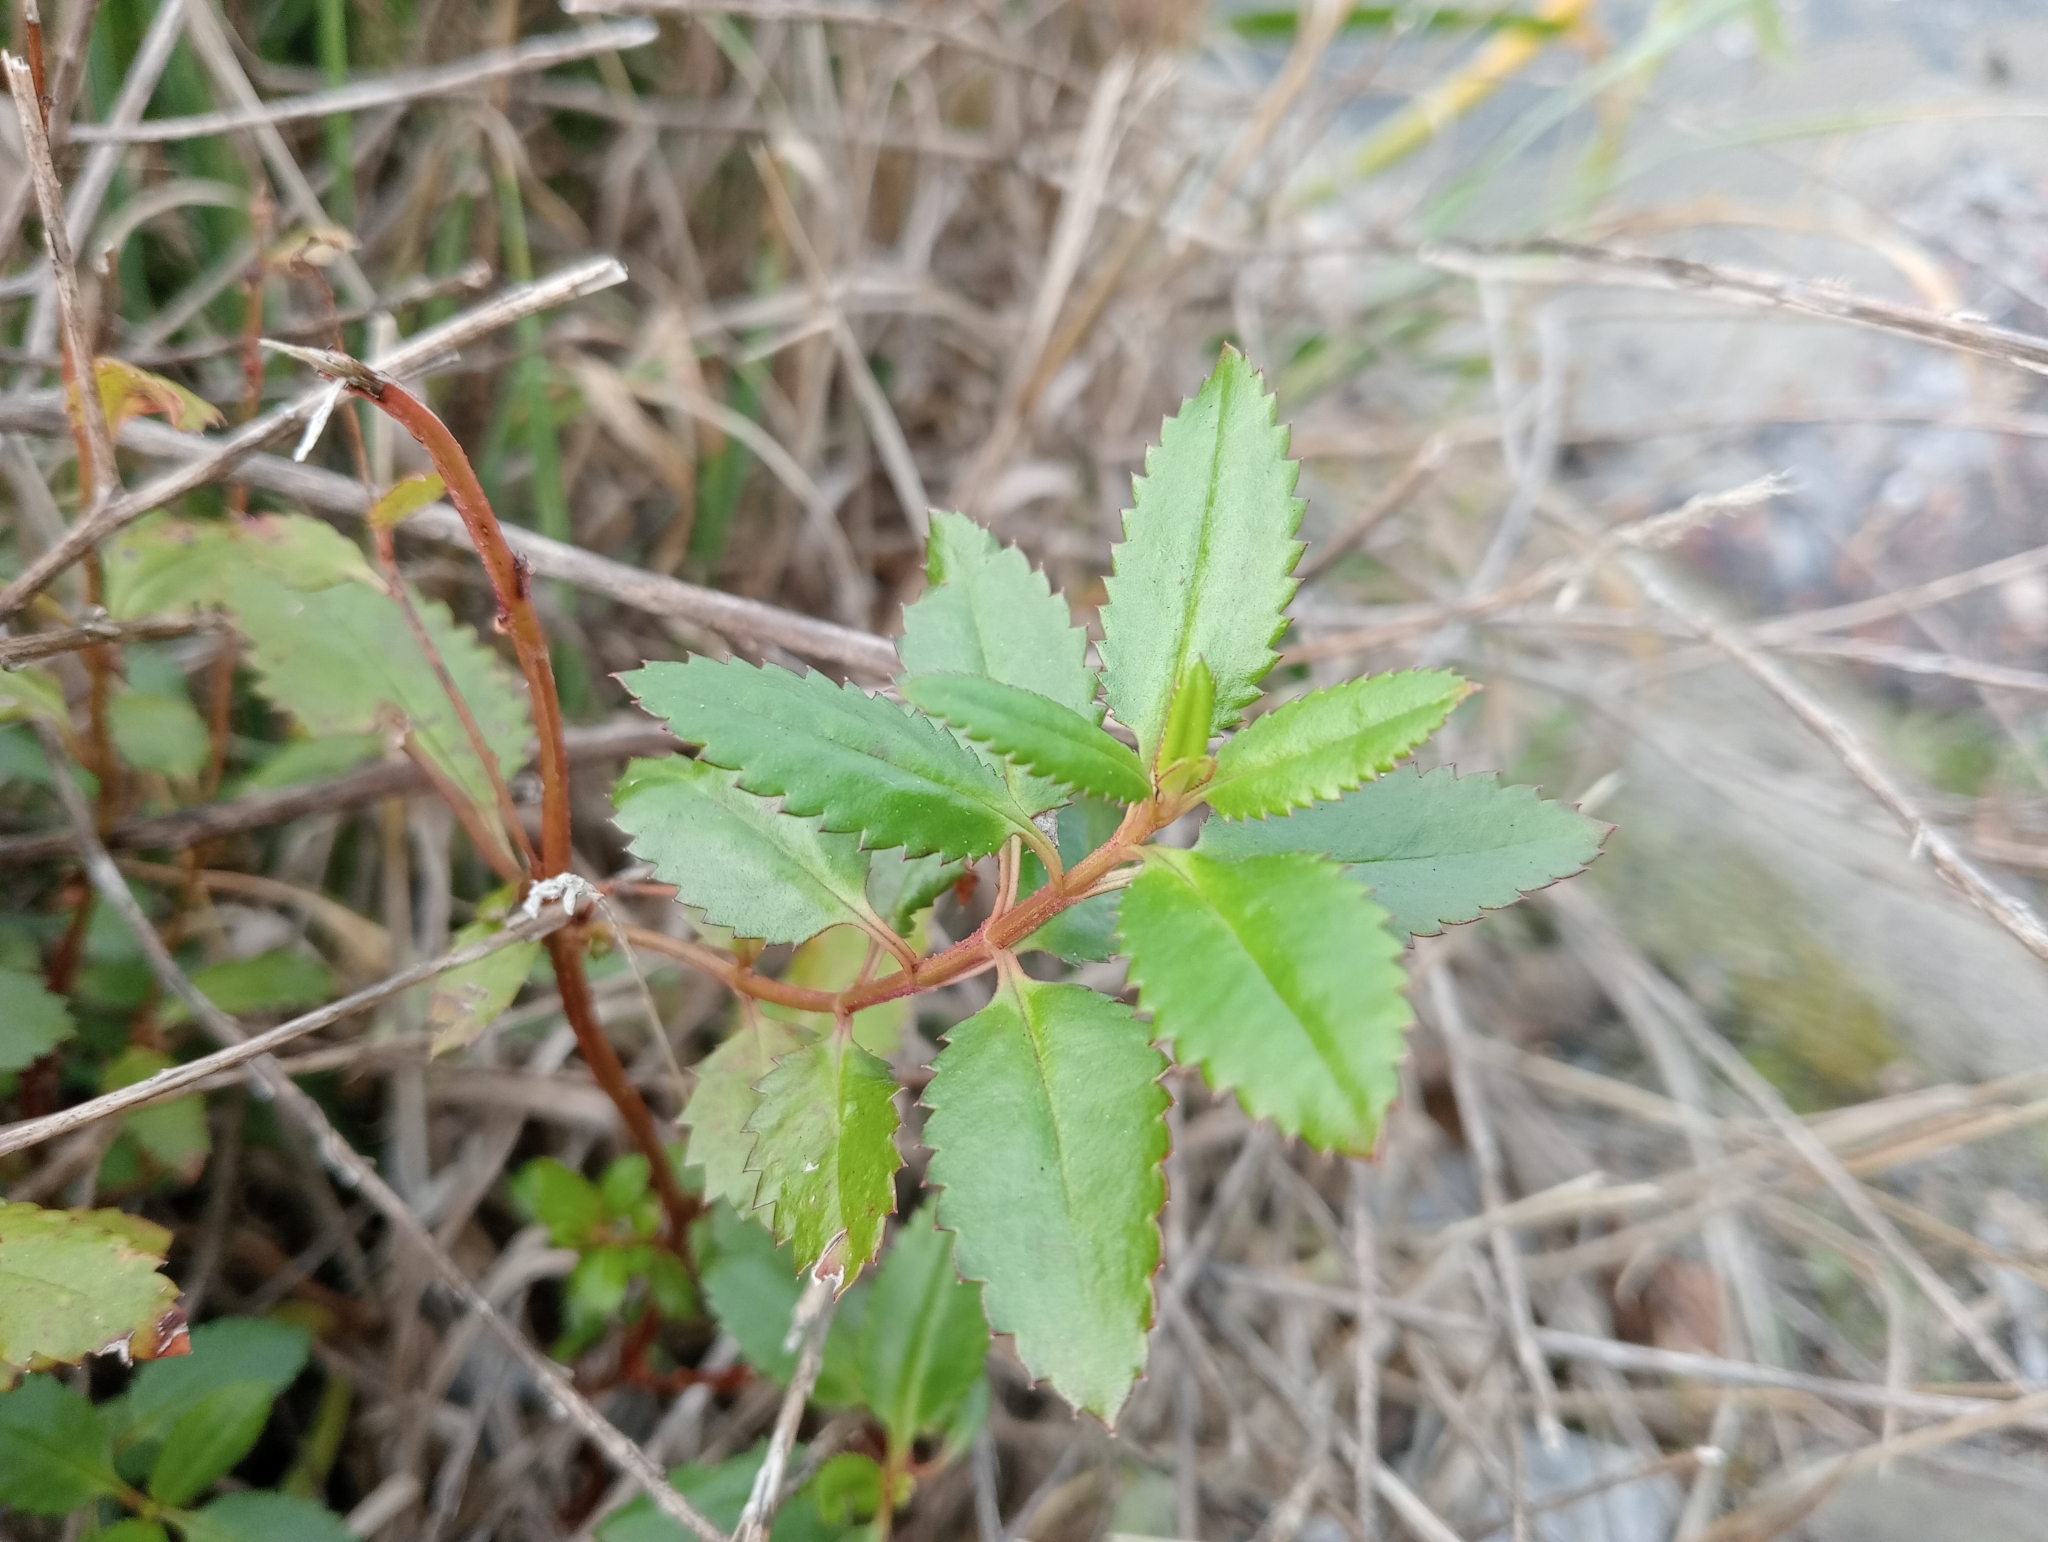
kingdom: Plantae
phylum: Tracheophyta
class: Magnoliopsida
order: Saxifragales
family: Haloragaceae
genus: Haloragis
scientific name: Haloragis erecta
